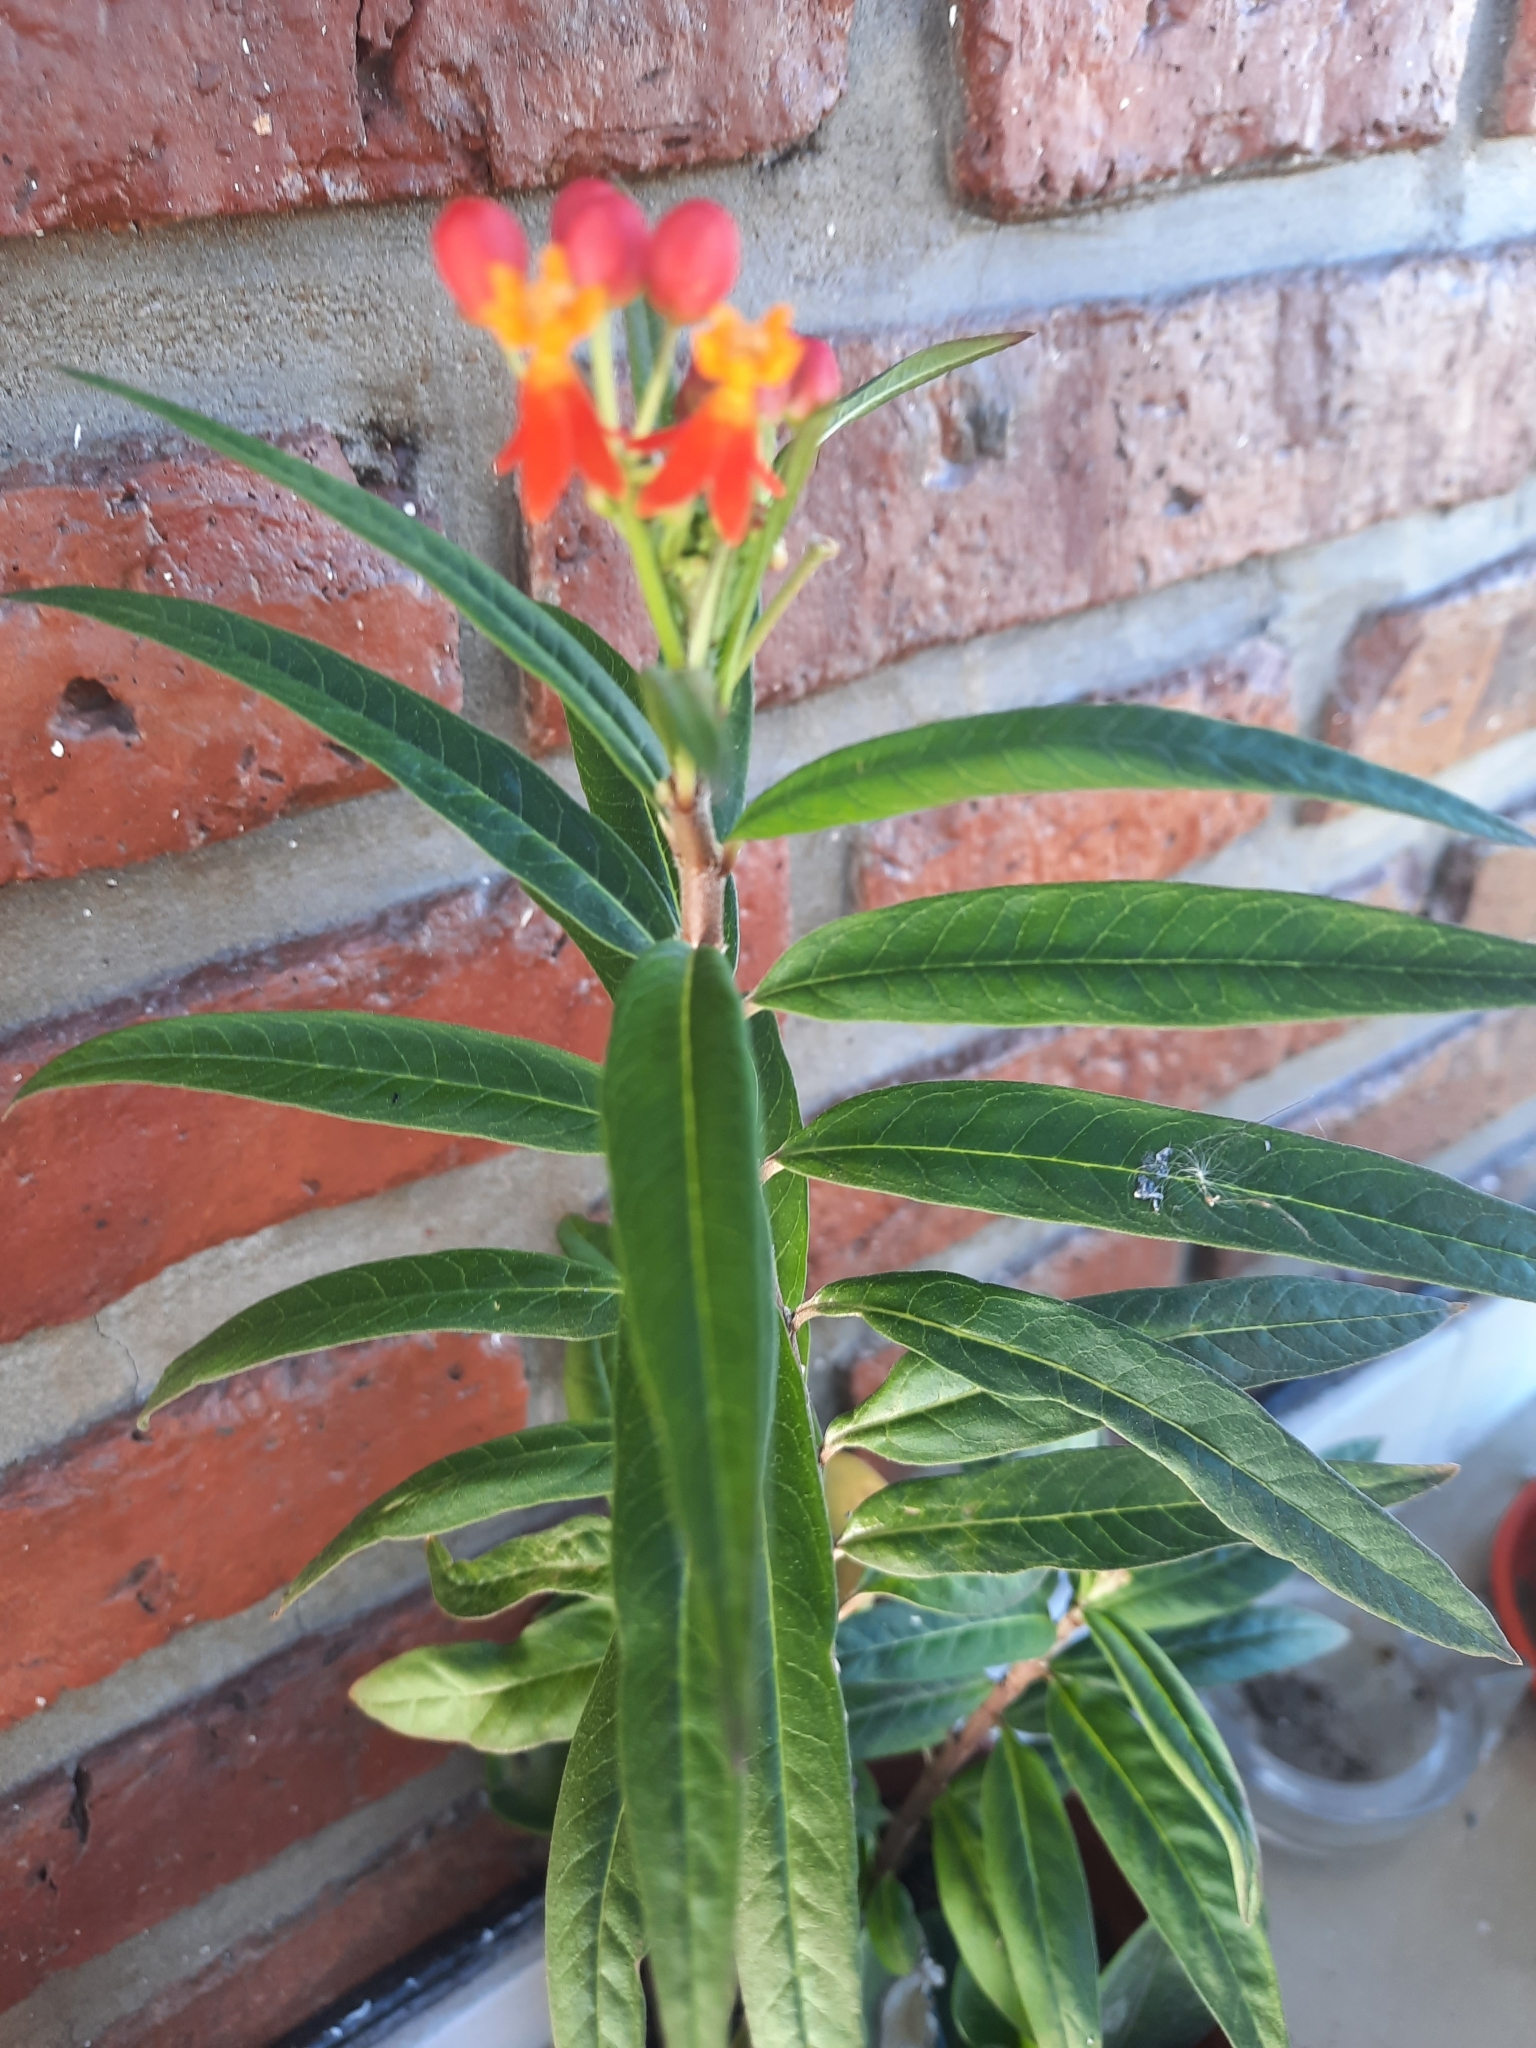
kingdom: Plantae
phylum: Tracheophyta
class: Magnoliopsida
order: Gentianales
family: Apocynaceae
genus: Asclepias
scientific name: Asclepias curassavica
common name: Bloodflower
